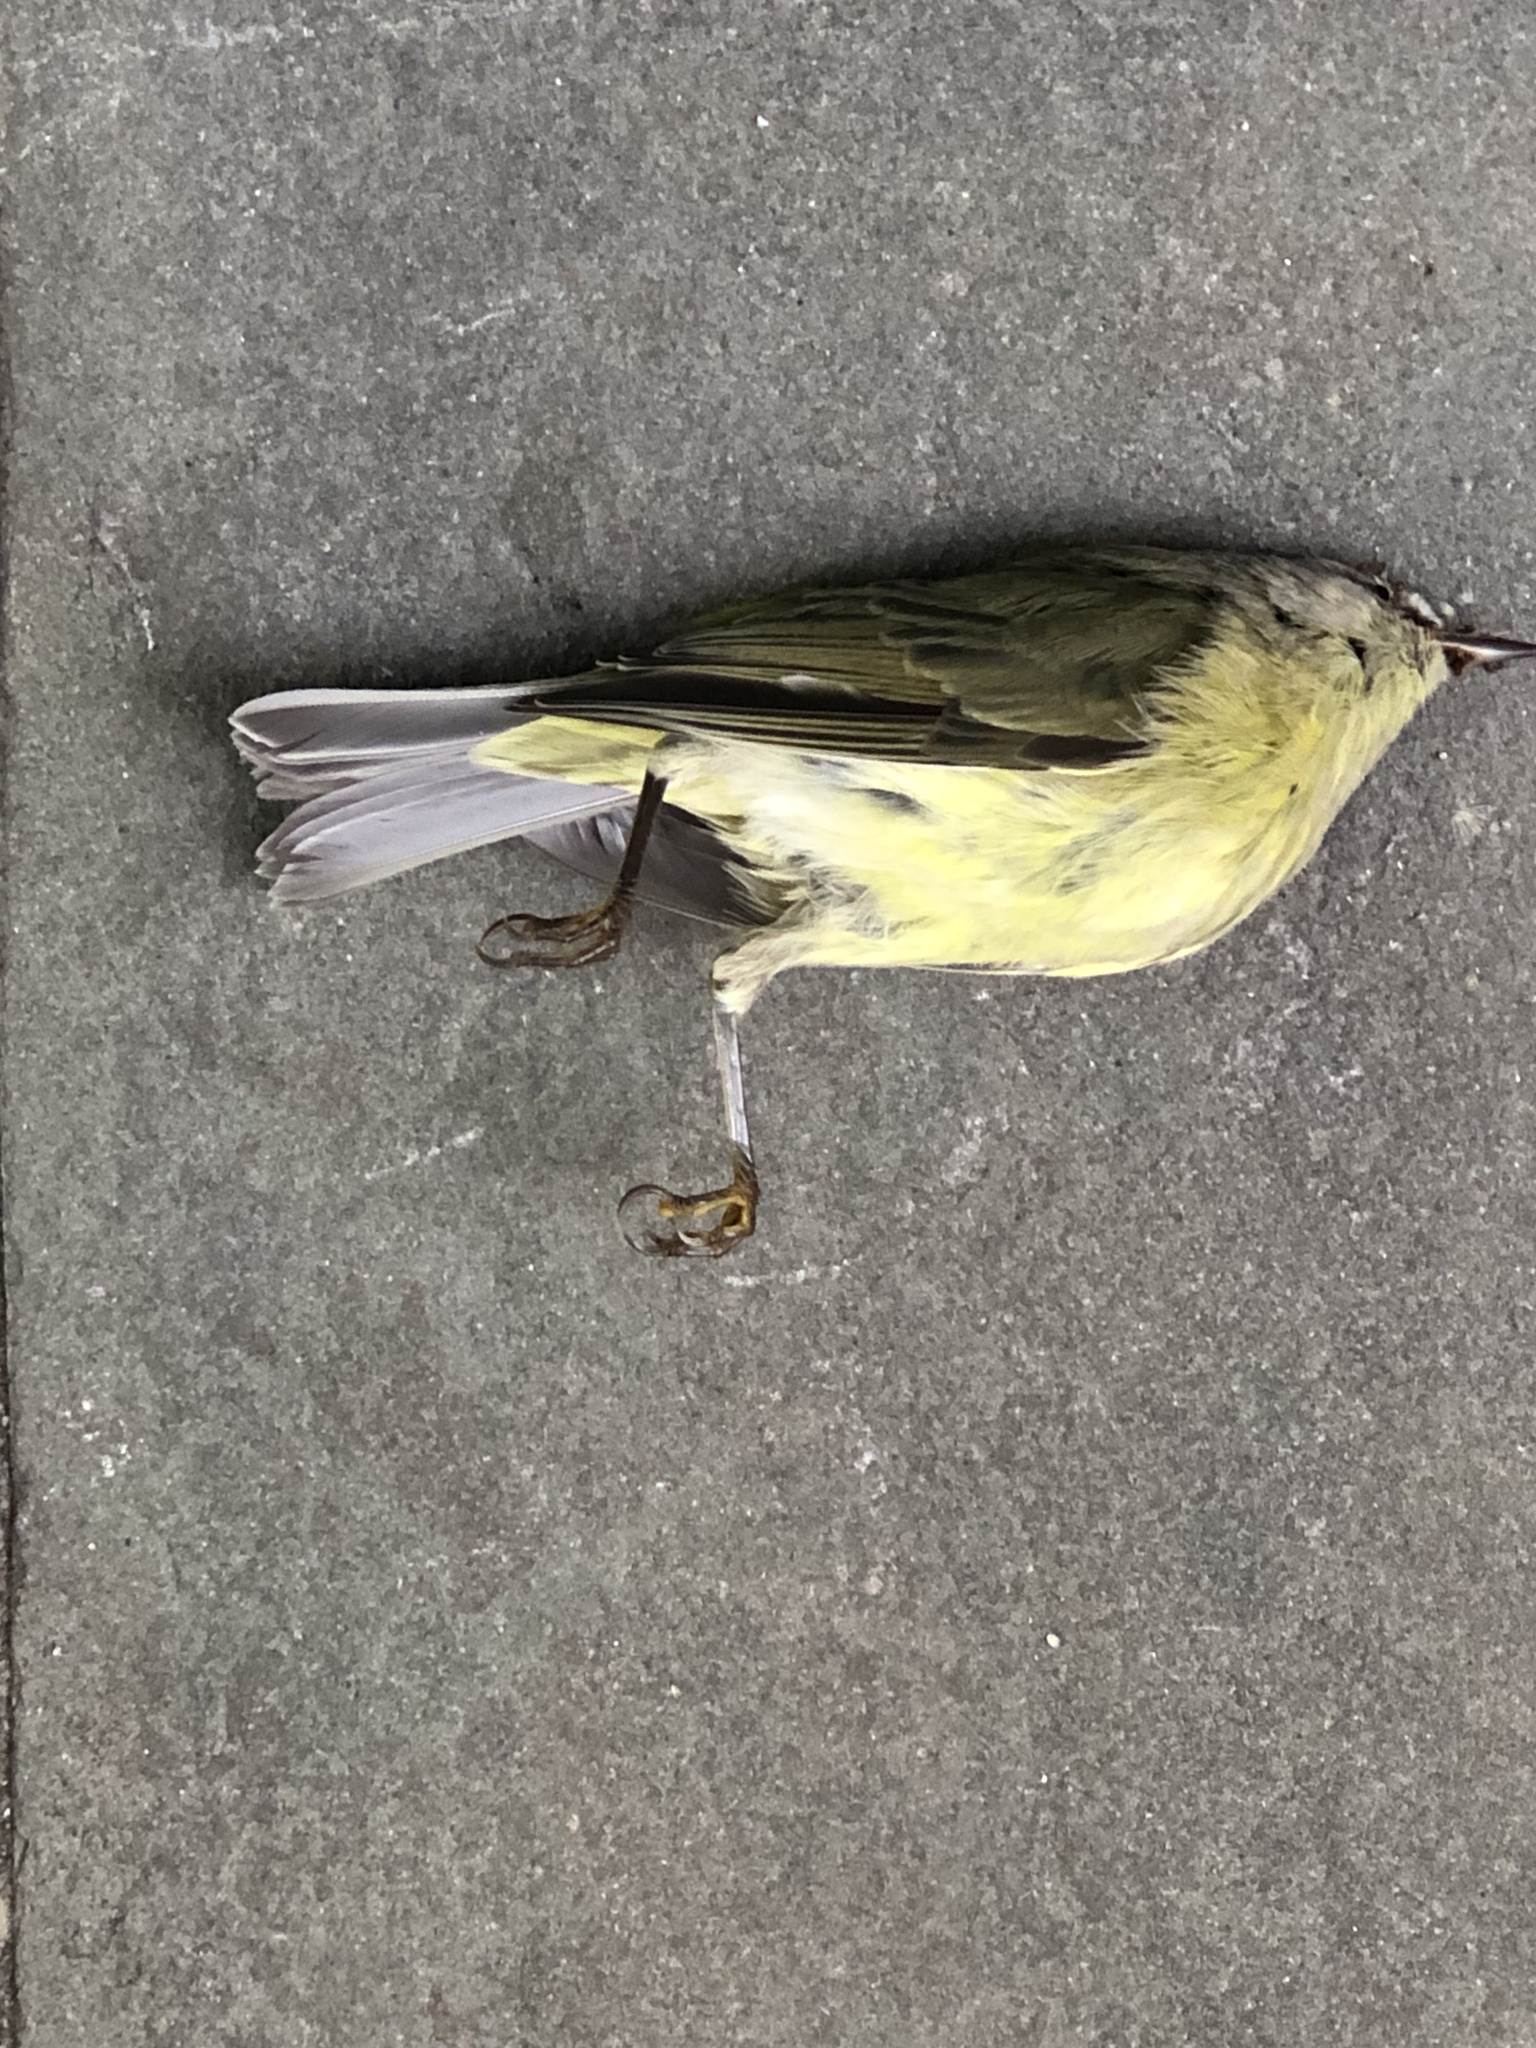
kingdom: Animalia
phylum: Chordata
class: Aves
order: Passeriformes
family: Parulidae
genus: Leiothlypis
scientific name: Leiothlypis celata
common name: Orange-crowned warbler
